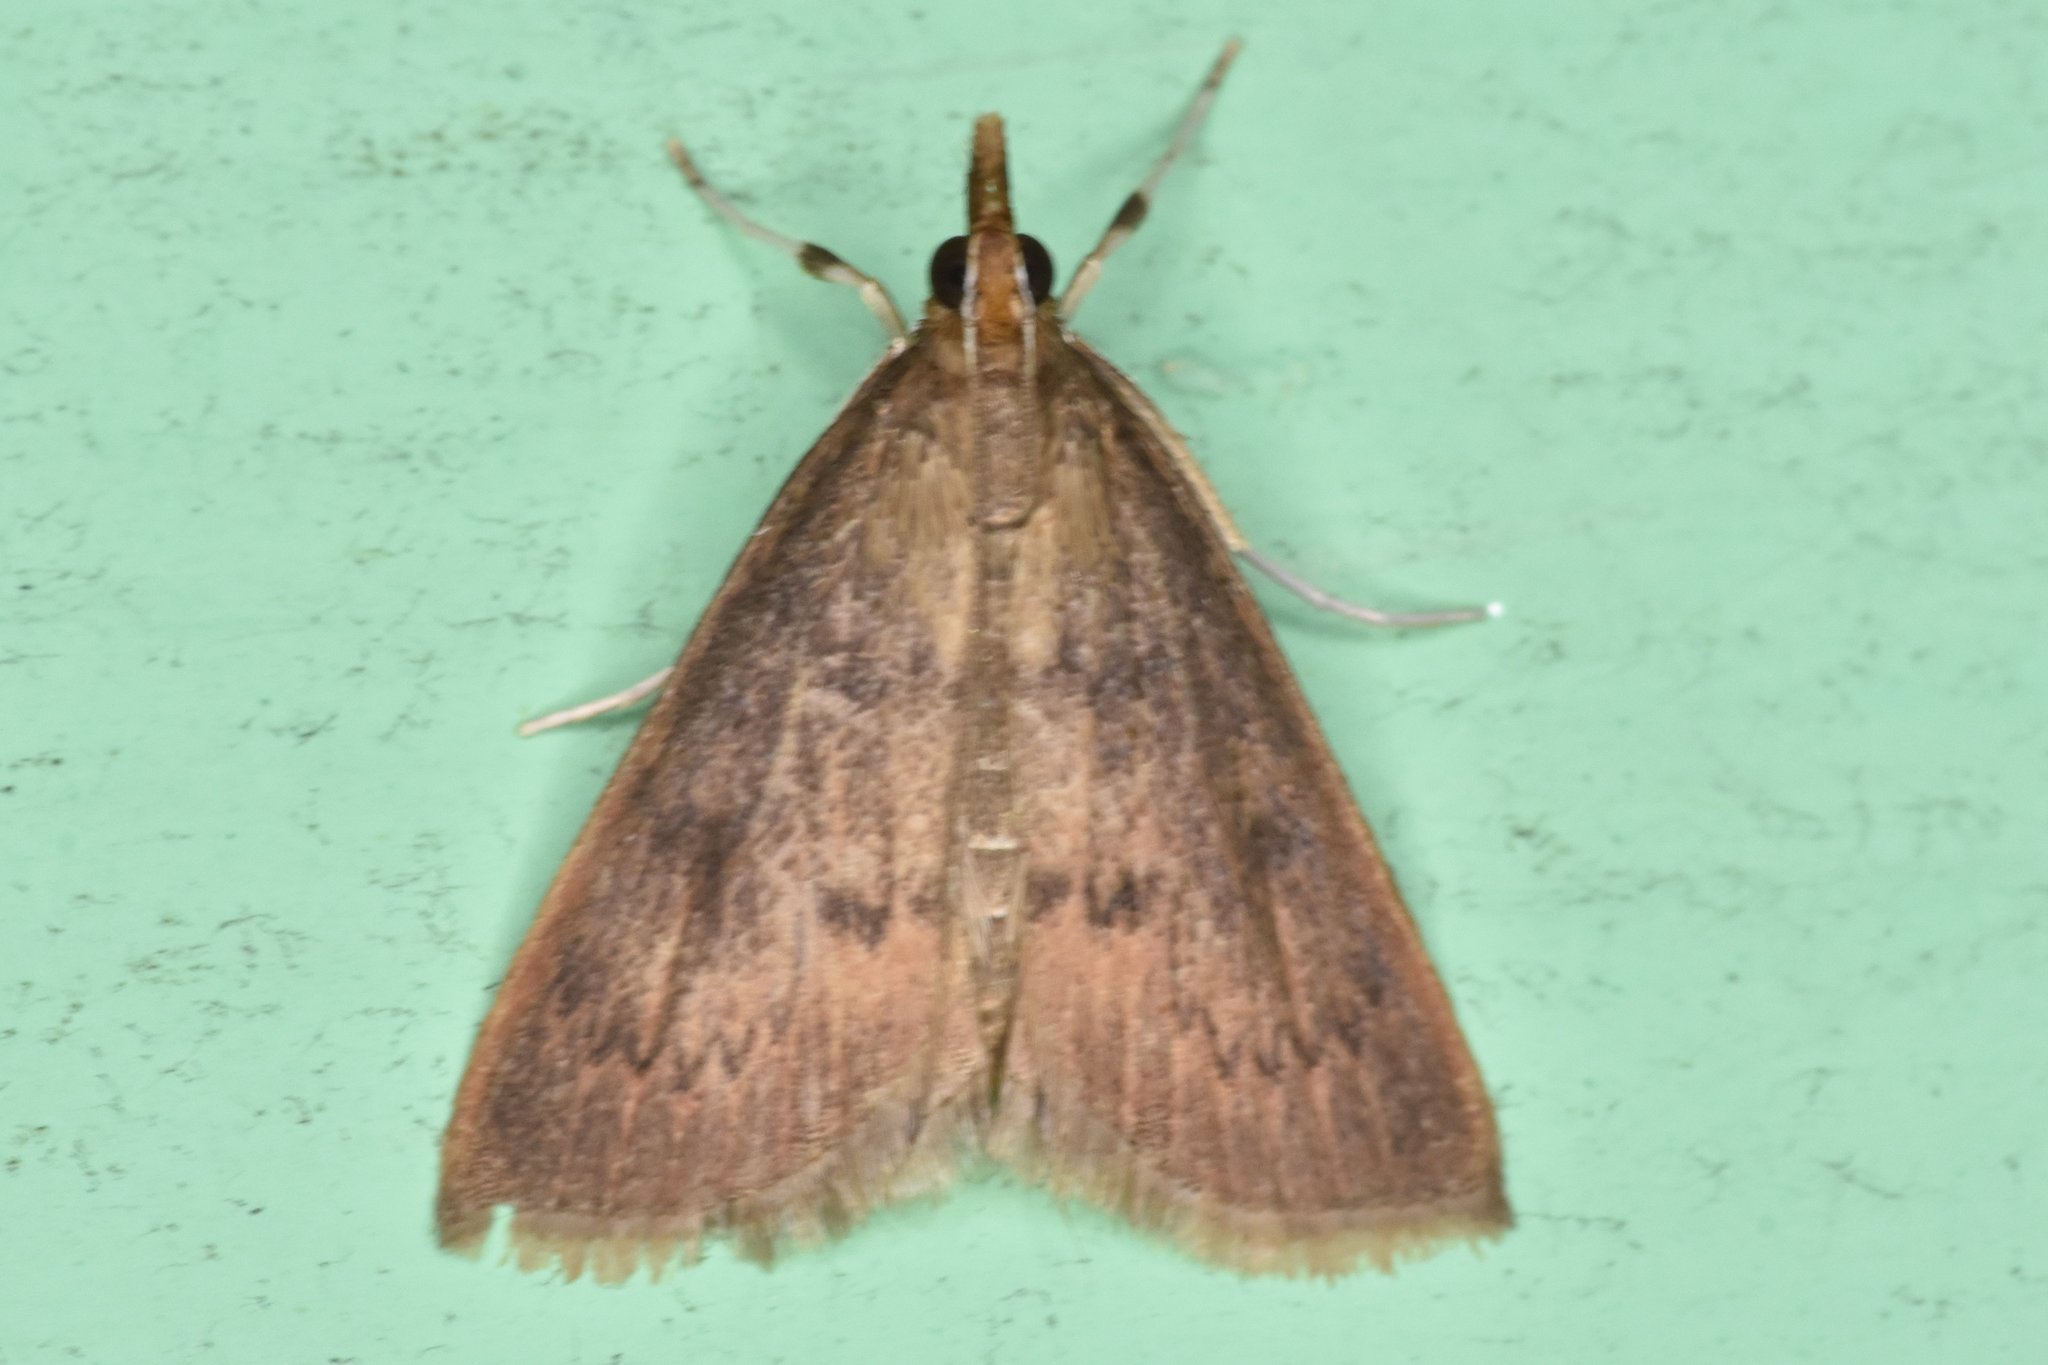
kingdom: Animalia
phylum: Arthropoda
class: Insecta
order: Lepidoptera
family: Crambidae
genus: Oenobotys
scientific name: Oenobotys vinotinctalis
